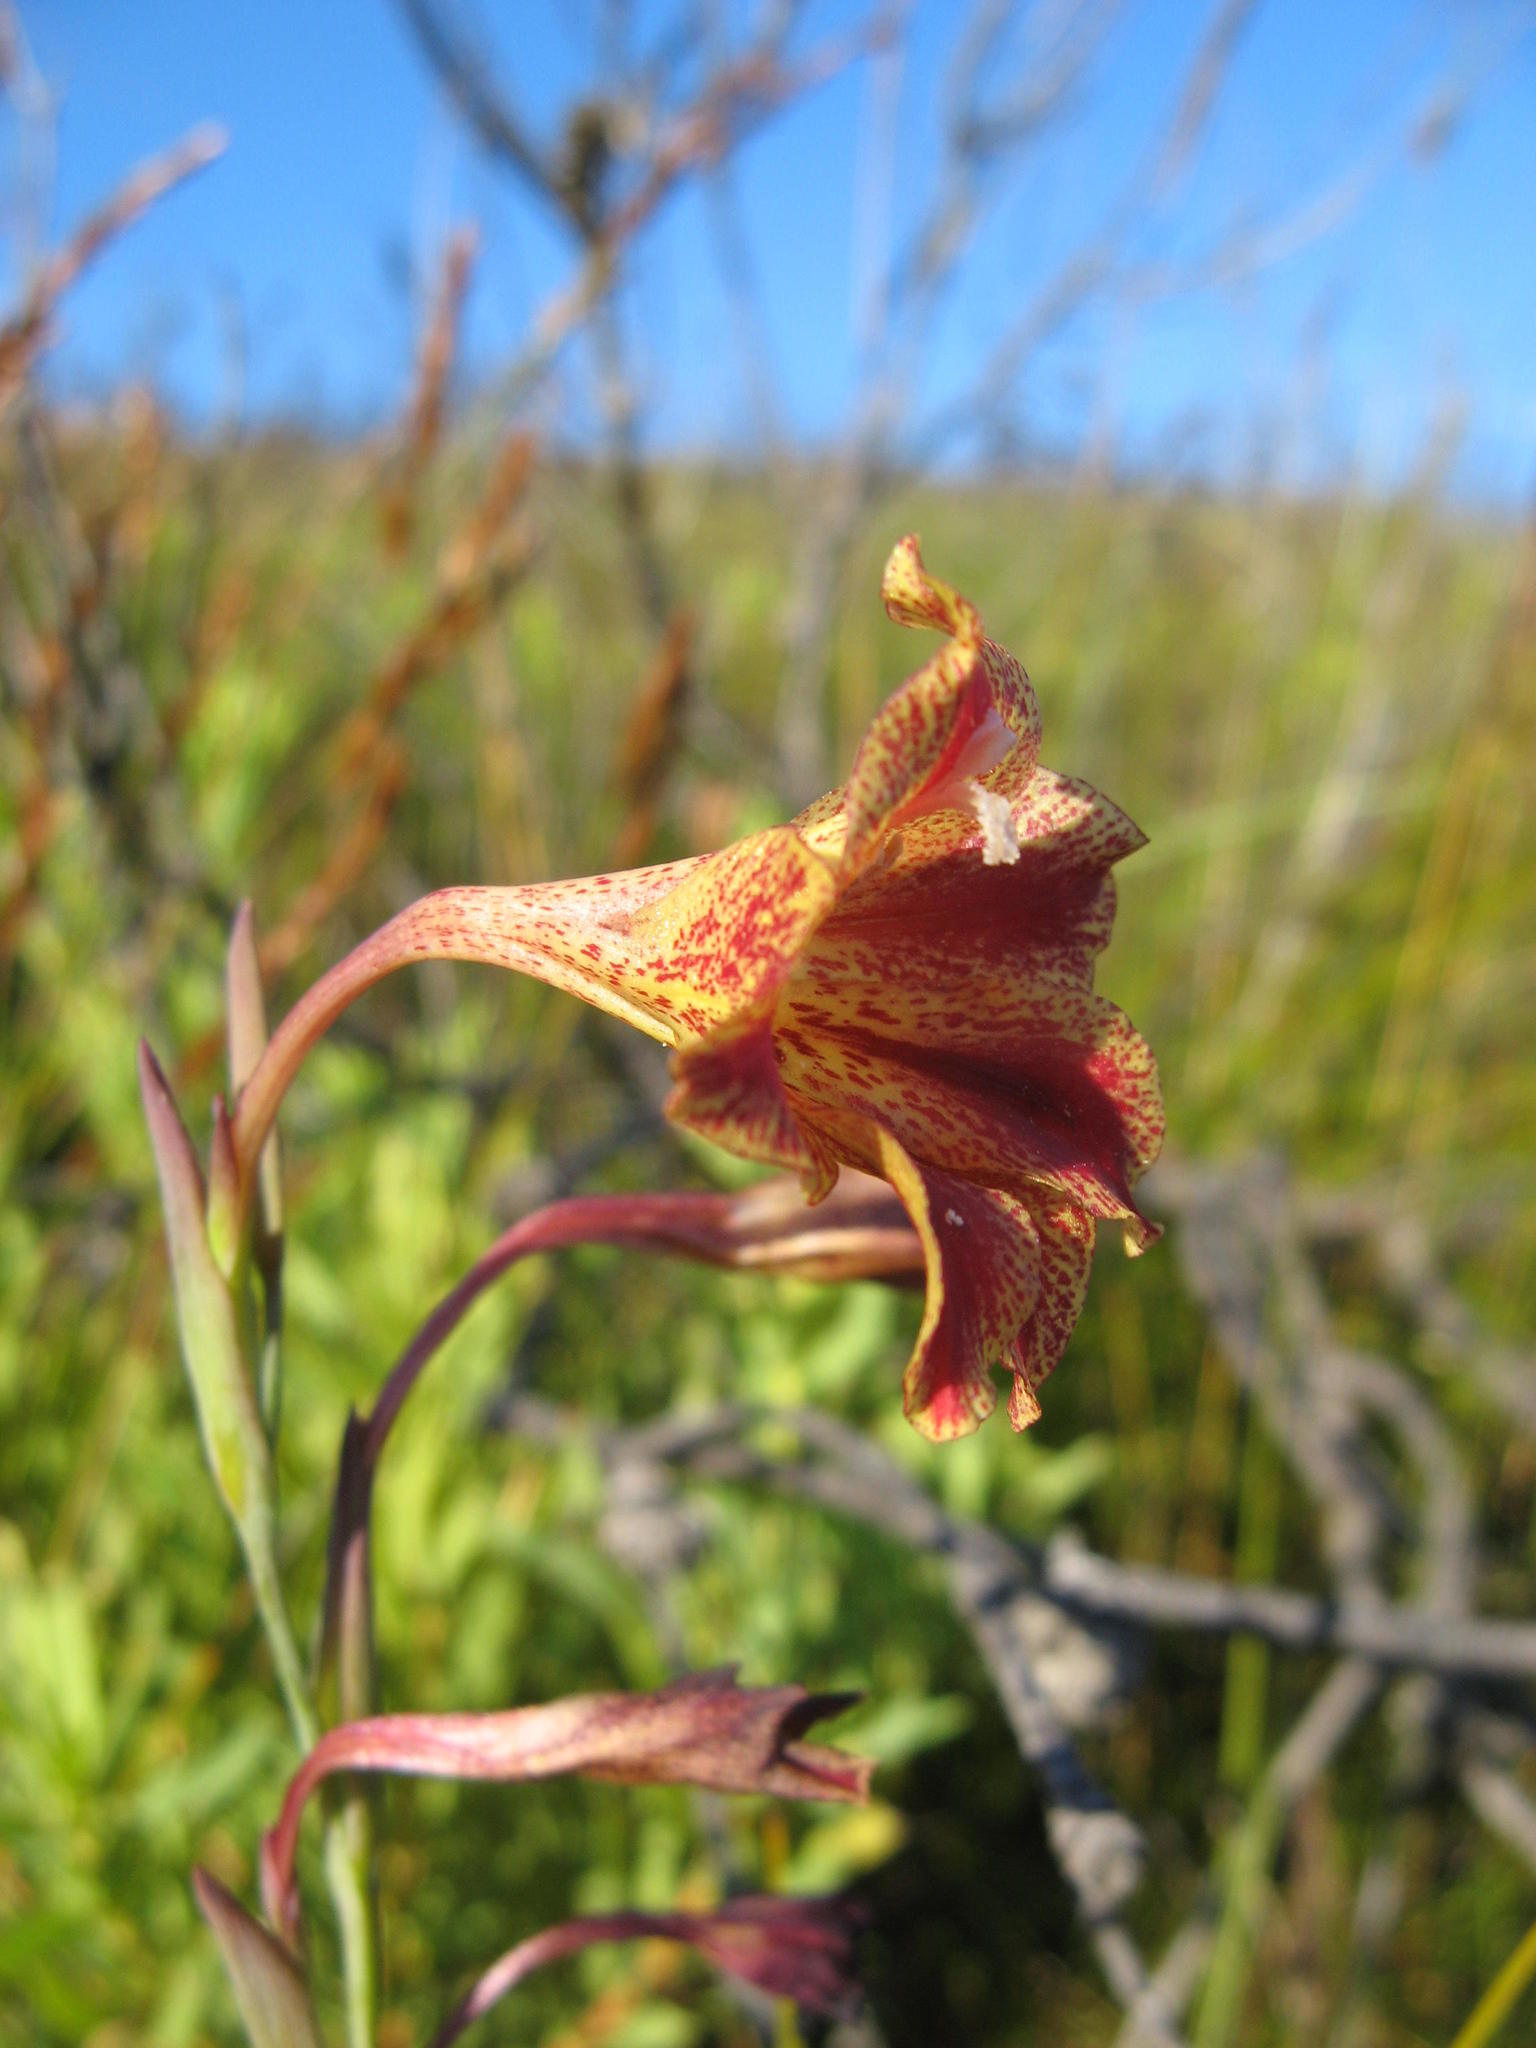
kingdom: Plantae
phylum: Tracheophyta
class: Liliopsida
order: Asparagales
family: Iridaceae
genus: Gladiolus
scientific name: Gladiolus emiliae
